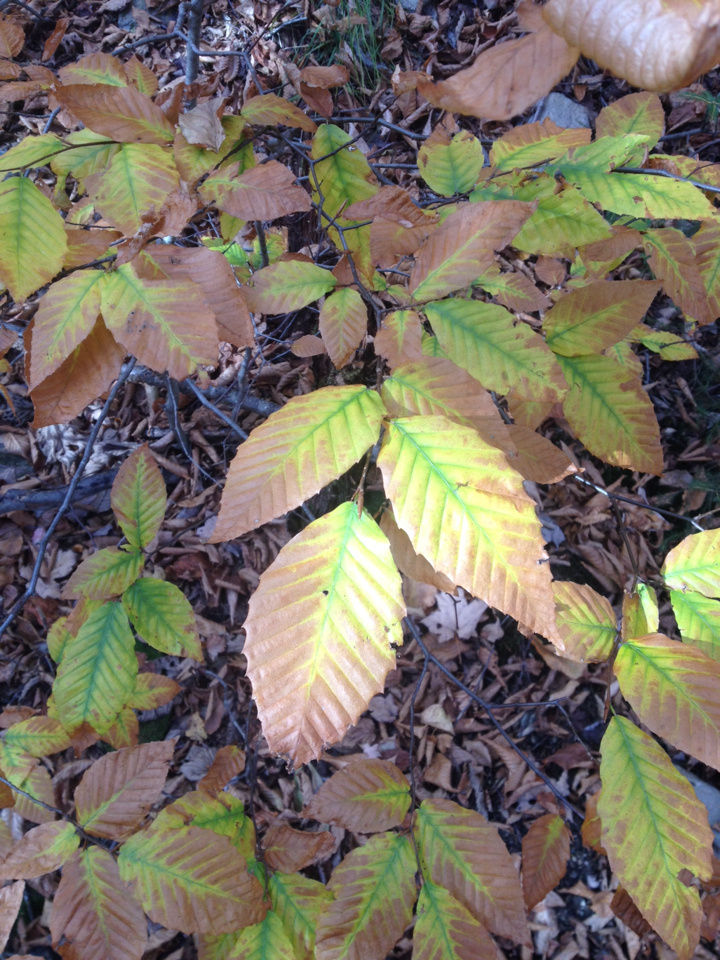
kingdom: Plantae
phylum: Tracheophyta
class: Magnoliopsida
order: Fagales
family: Fagaceae
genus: Fagus
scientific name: Fagus grandifolia
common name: American beech
